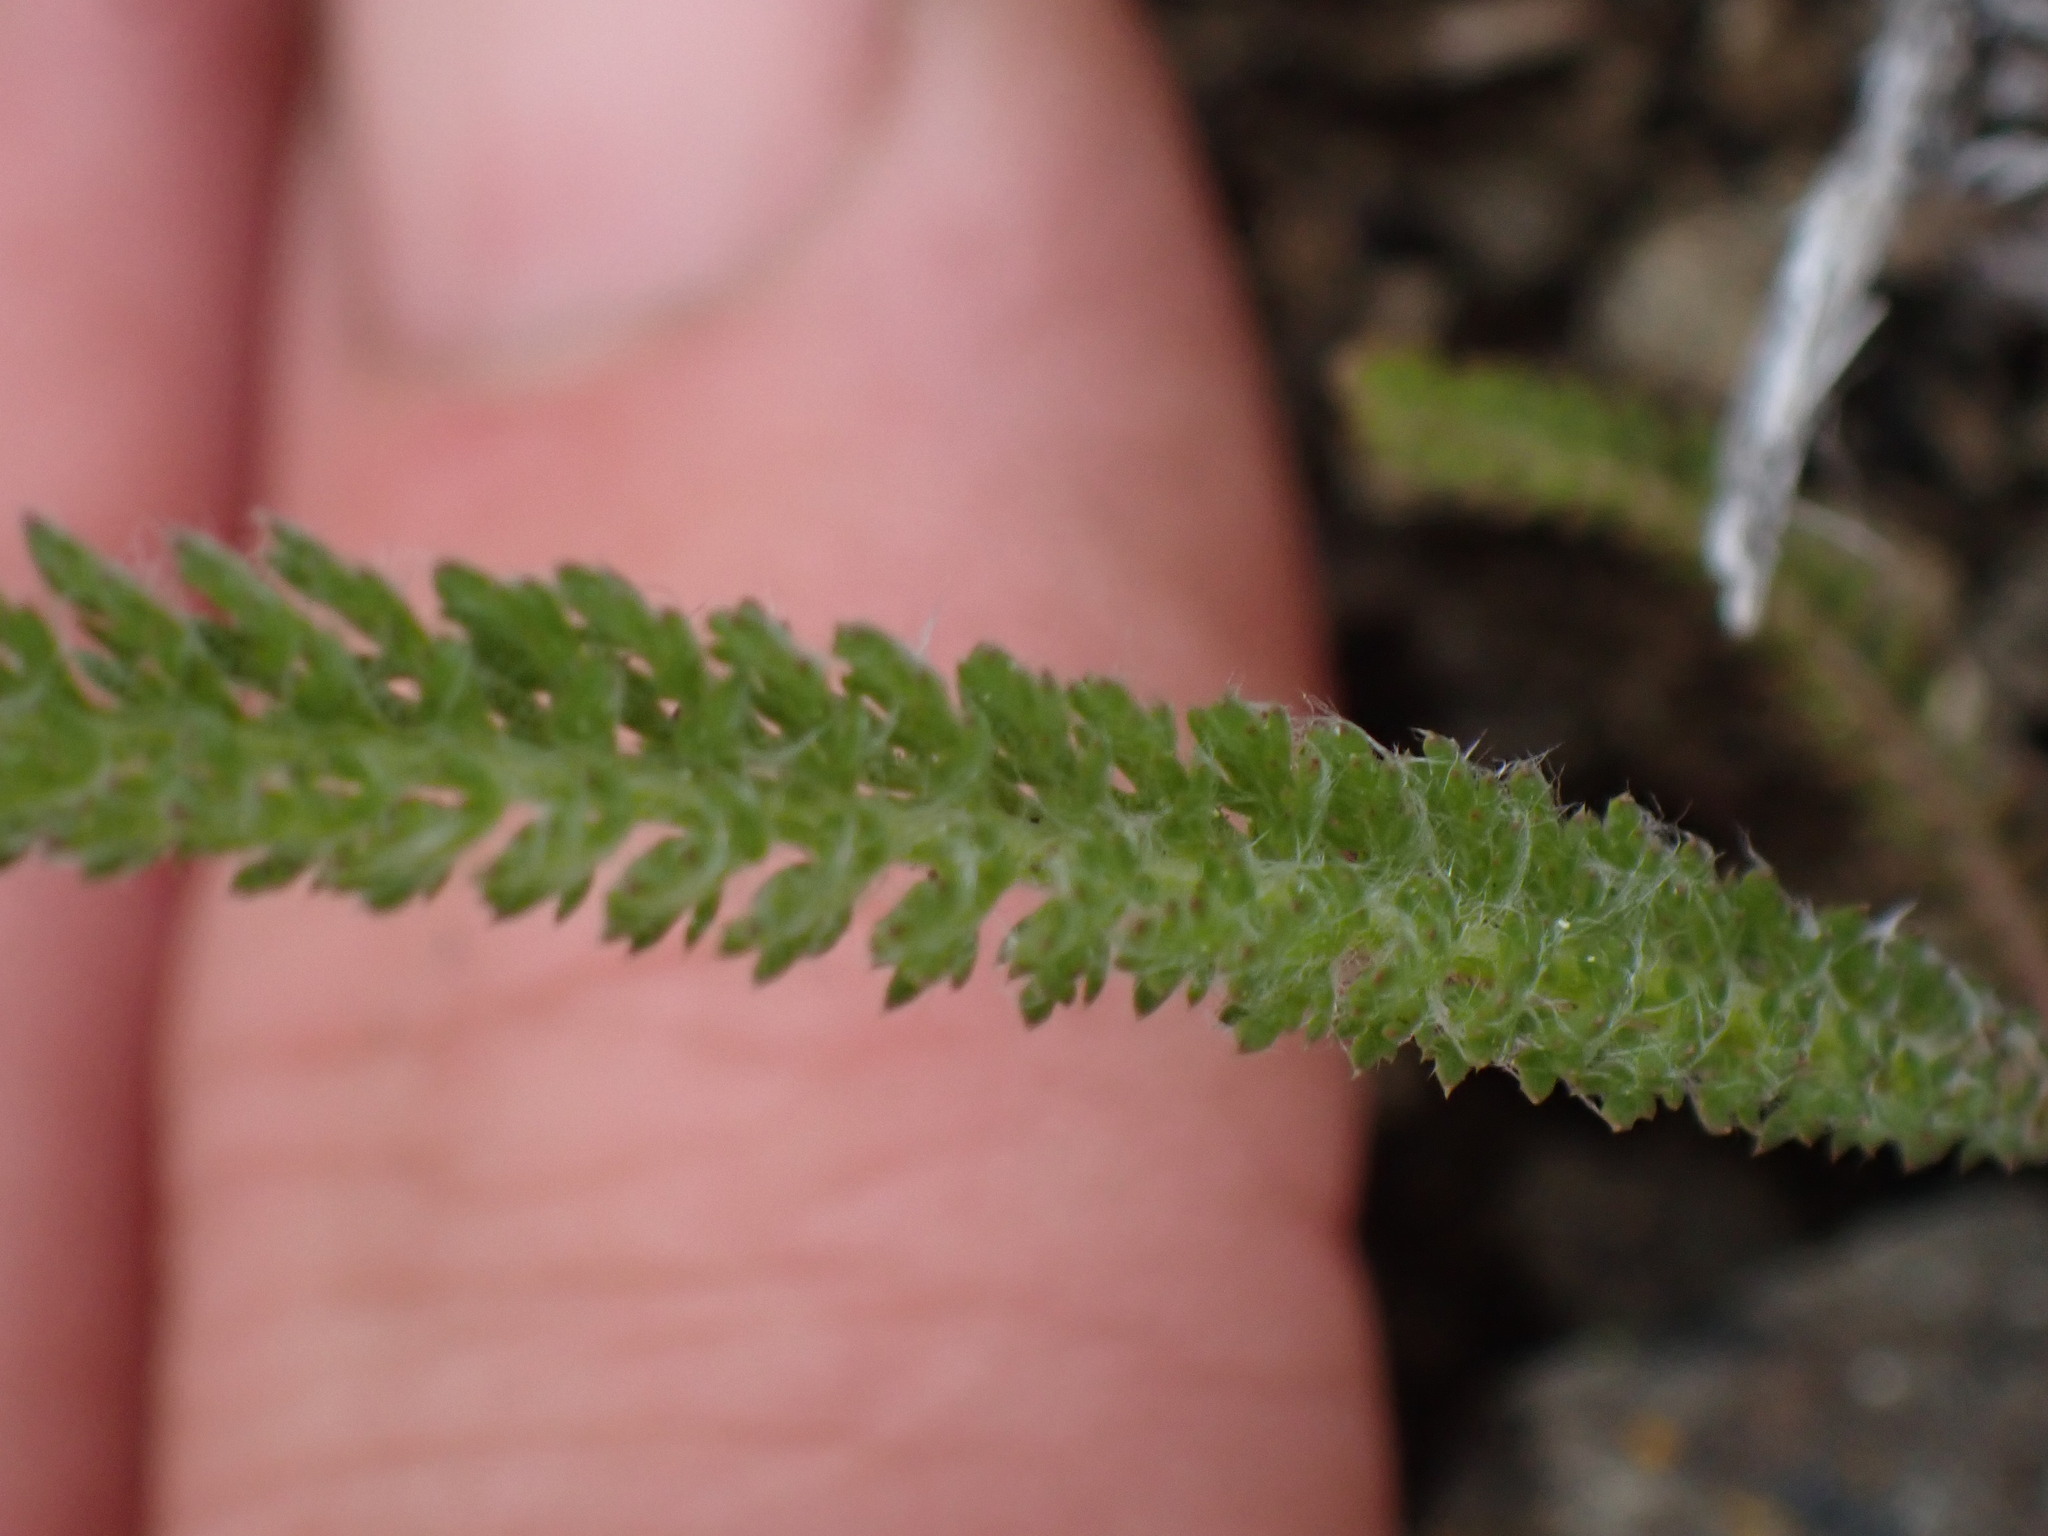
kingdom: Plantae
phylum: Tracheophyta
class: Magnoliopsida
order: Asterales
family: Asteraceae
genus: Achillea
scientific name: Achillea millefolium
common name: Yarrow
